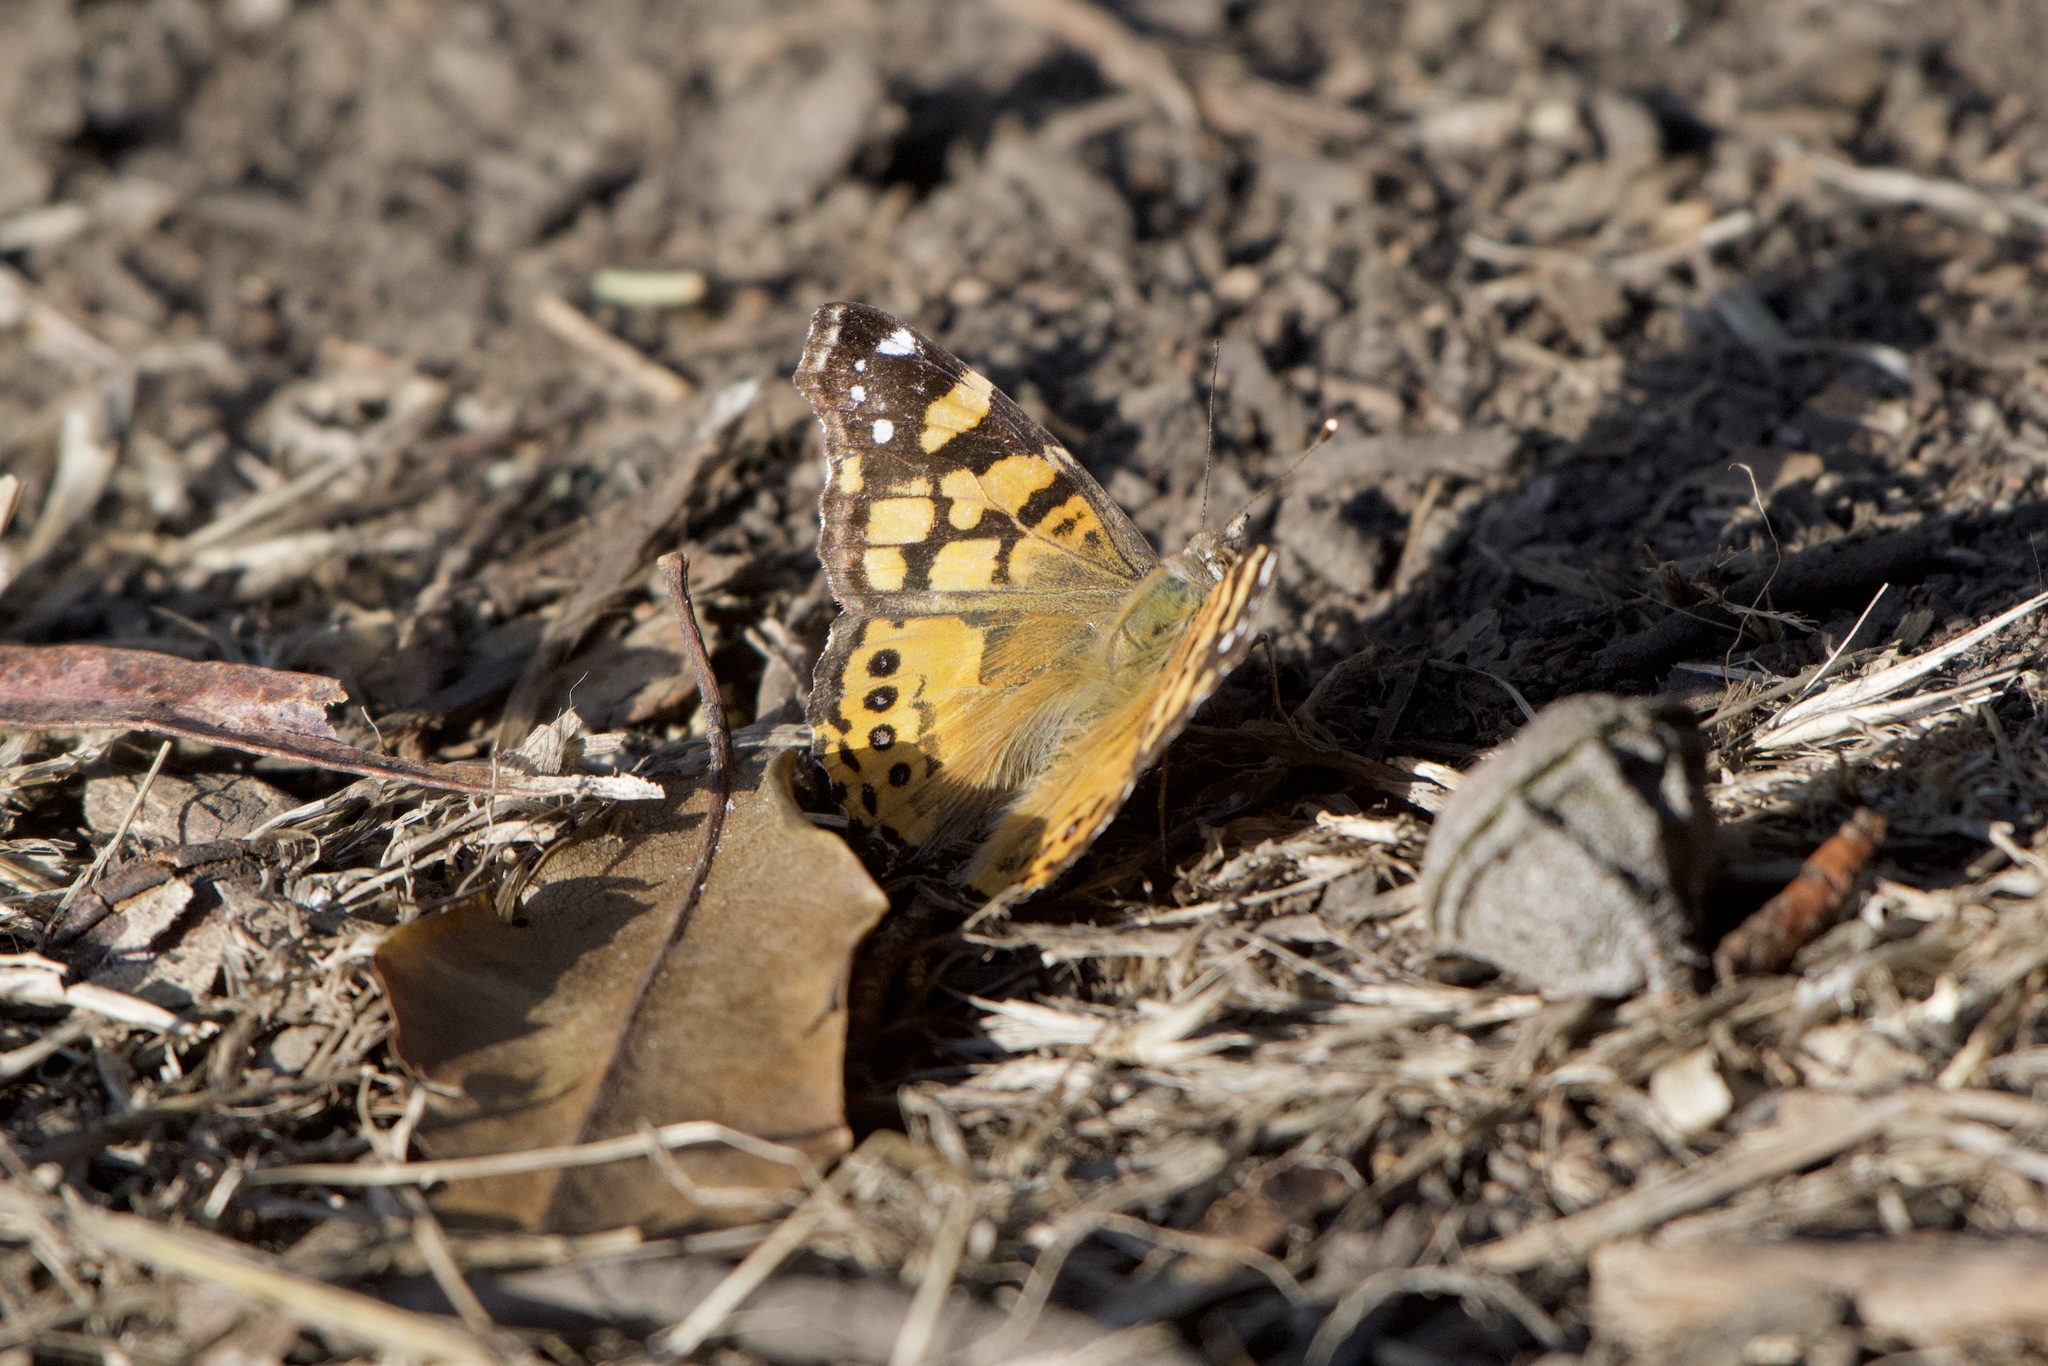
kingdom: Animalia
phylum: Arthropoda
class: Insecta
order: Lepidoptera
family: Nymphalidae
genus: Vanessa
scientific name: Vanessa annabella
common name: West coast lady
